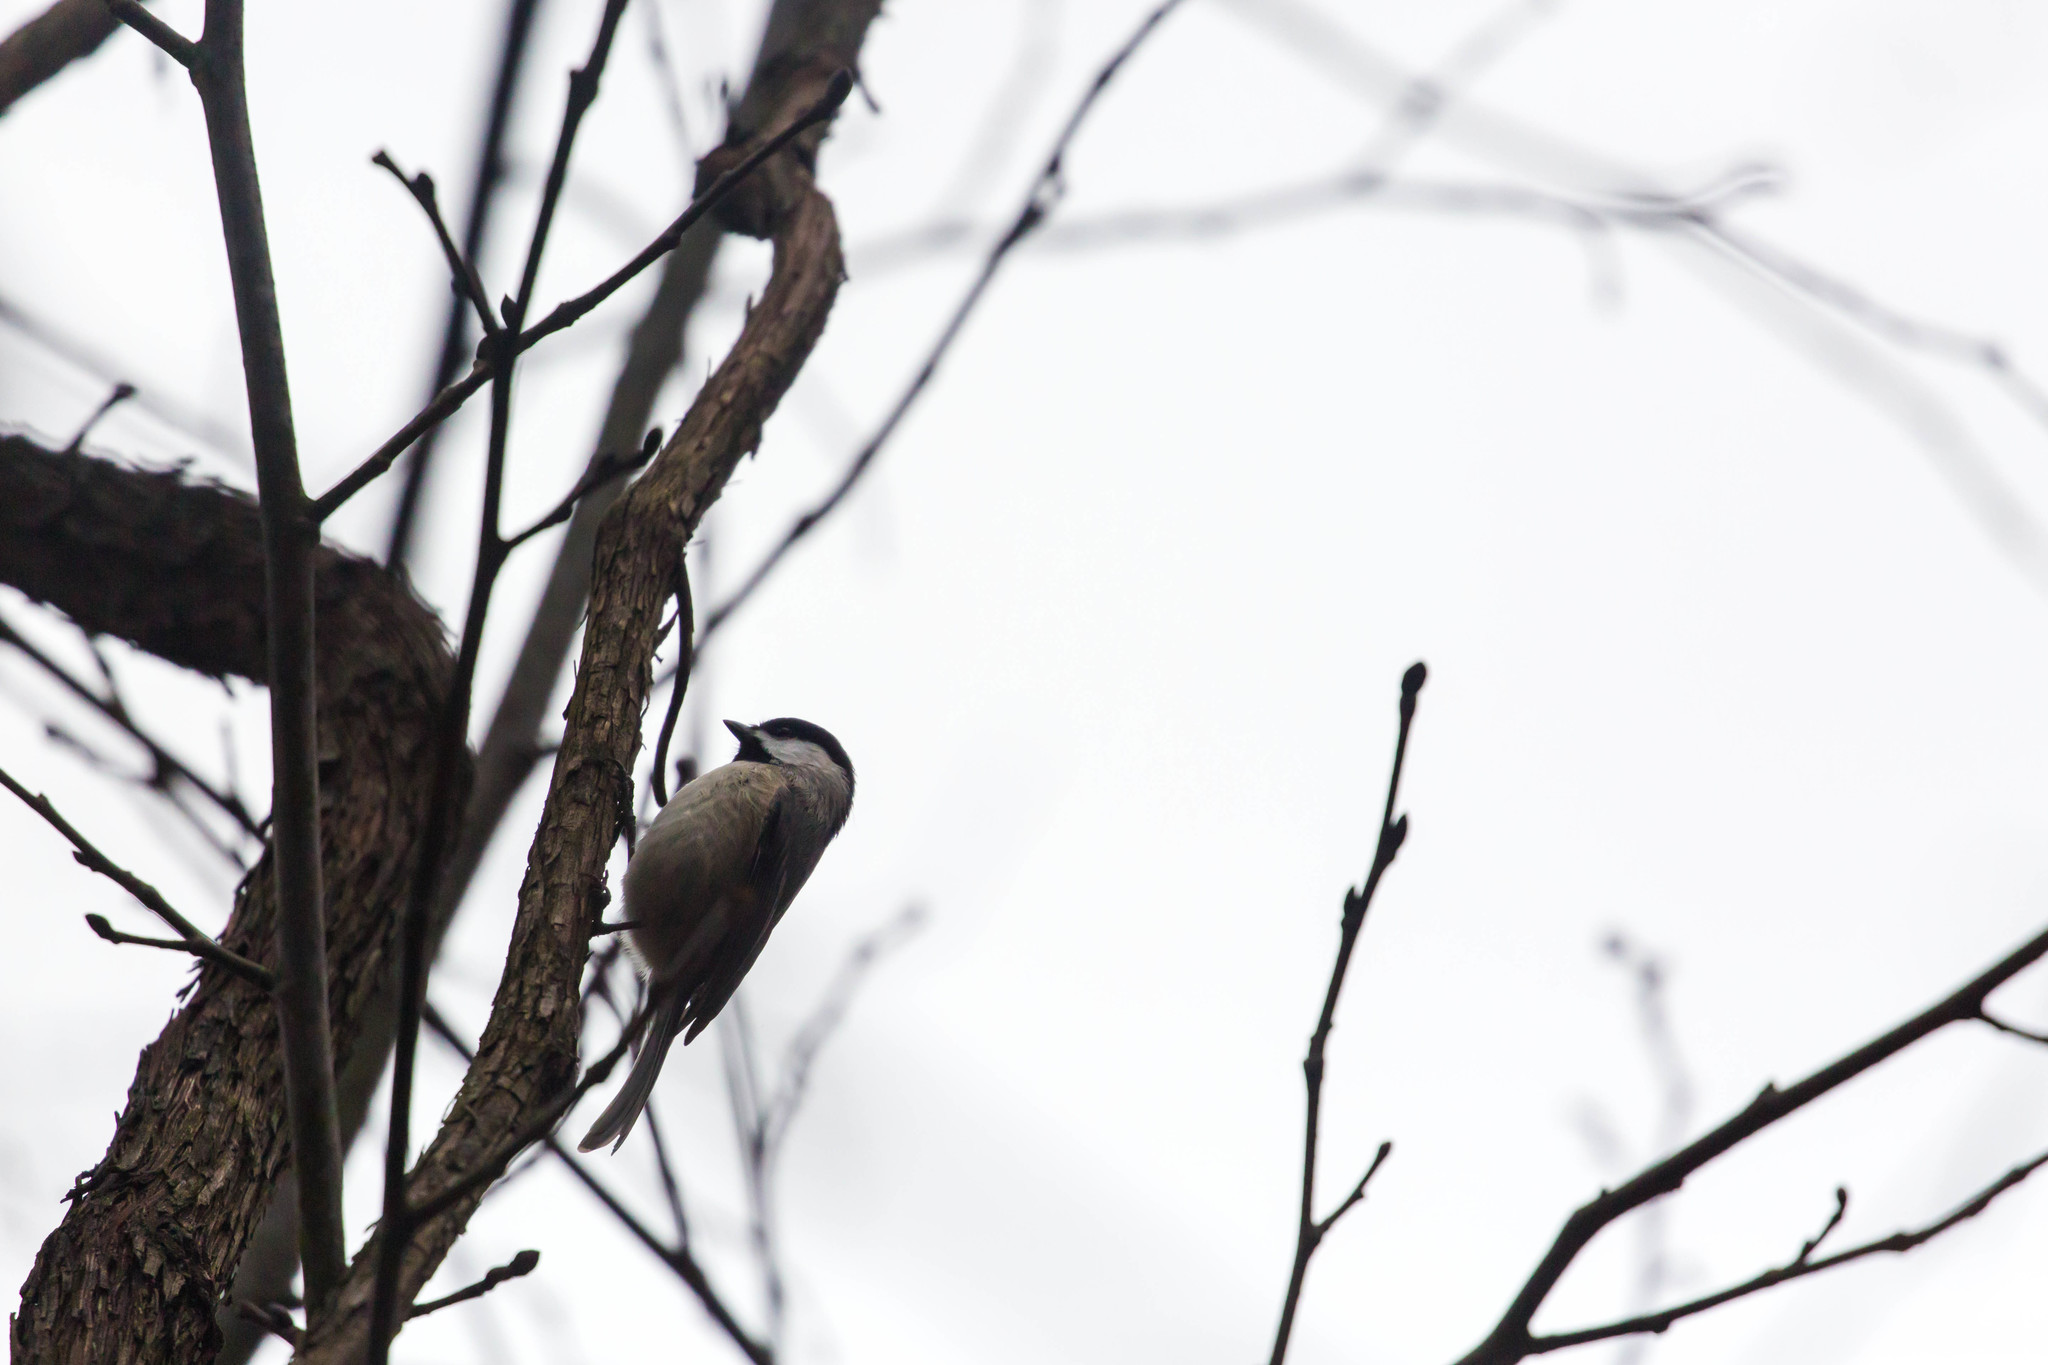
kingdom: Animalia
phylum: Chordata
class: Aves
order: Passeriformes
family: Paridae
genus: Poecile
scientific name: Poecile carolinensis
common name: Carolina chickadee
